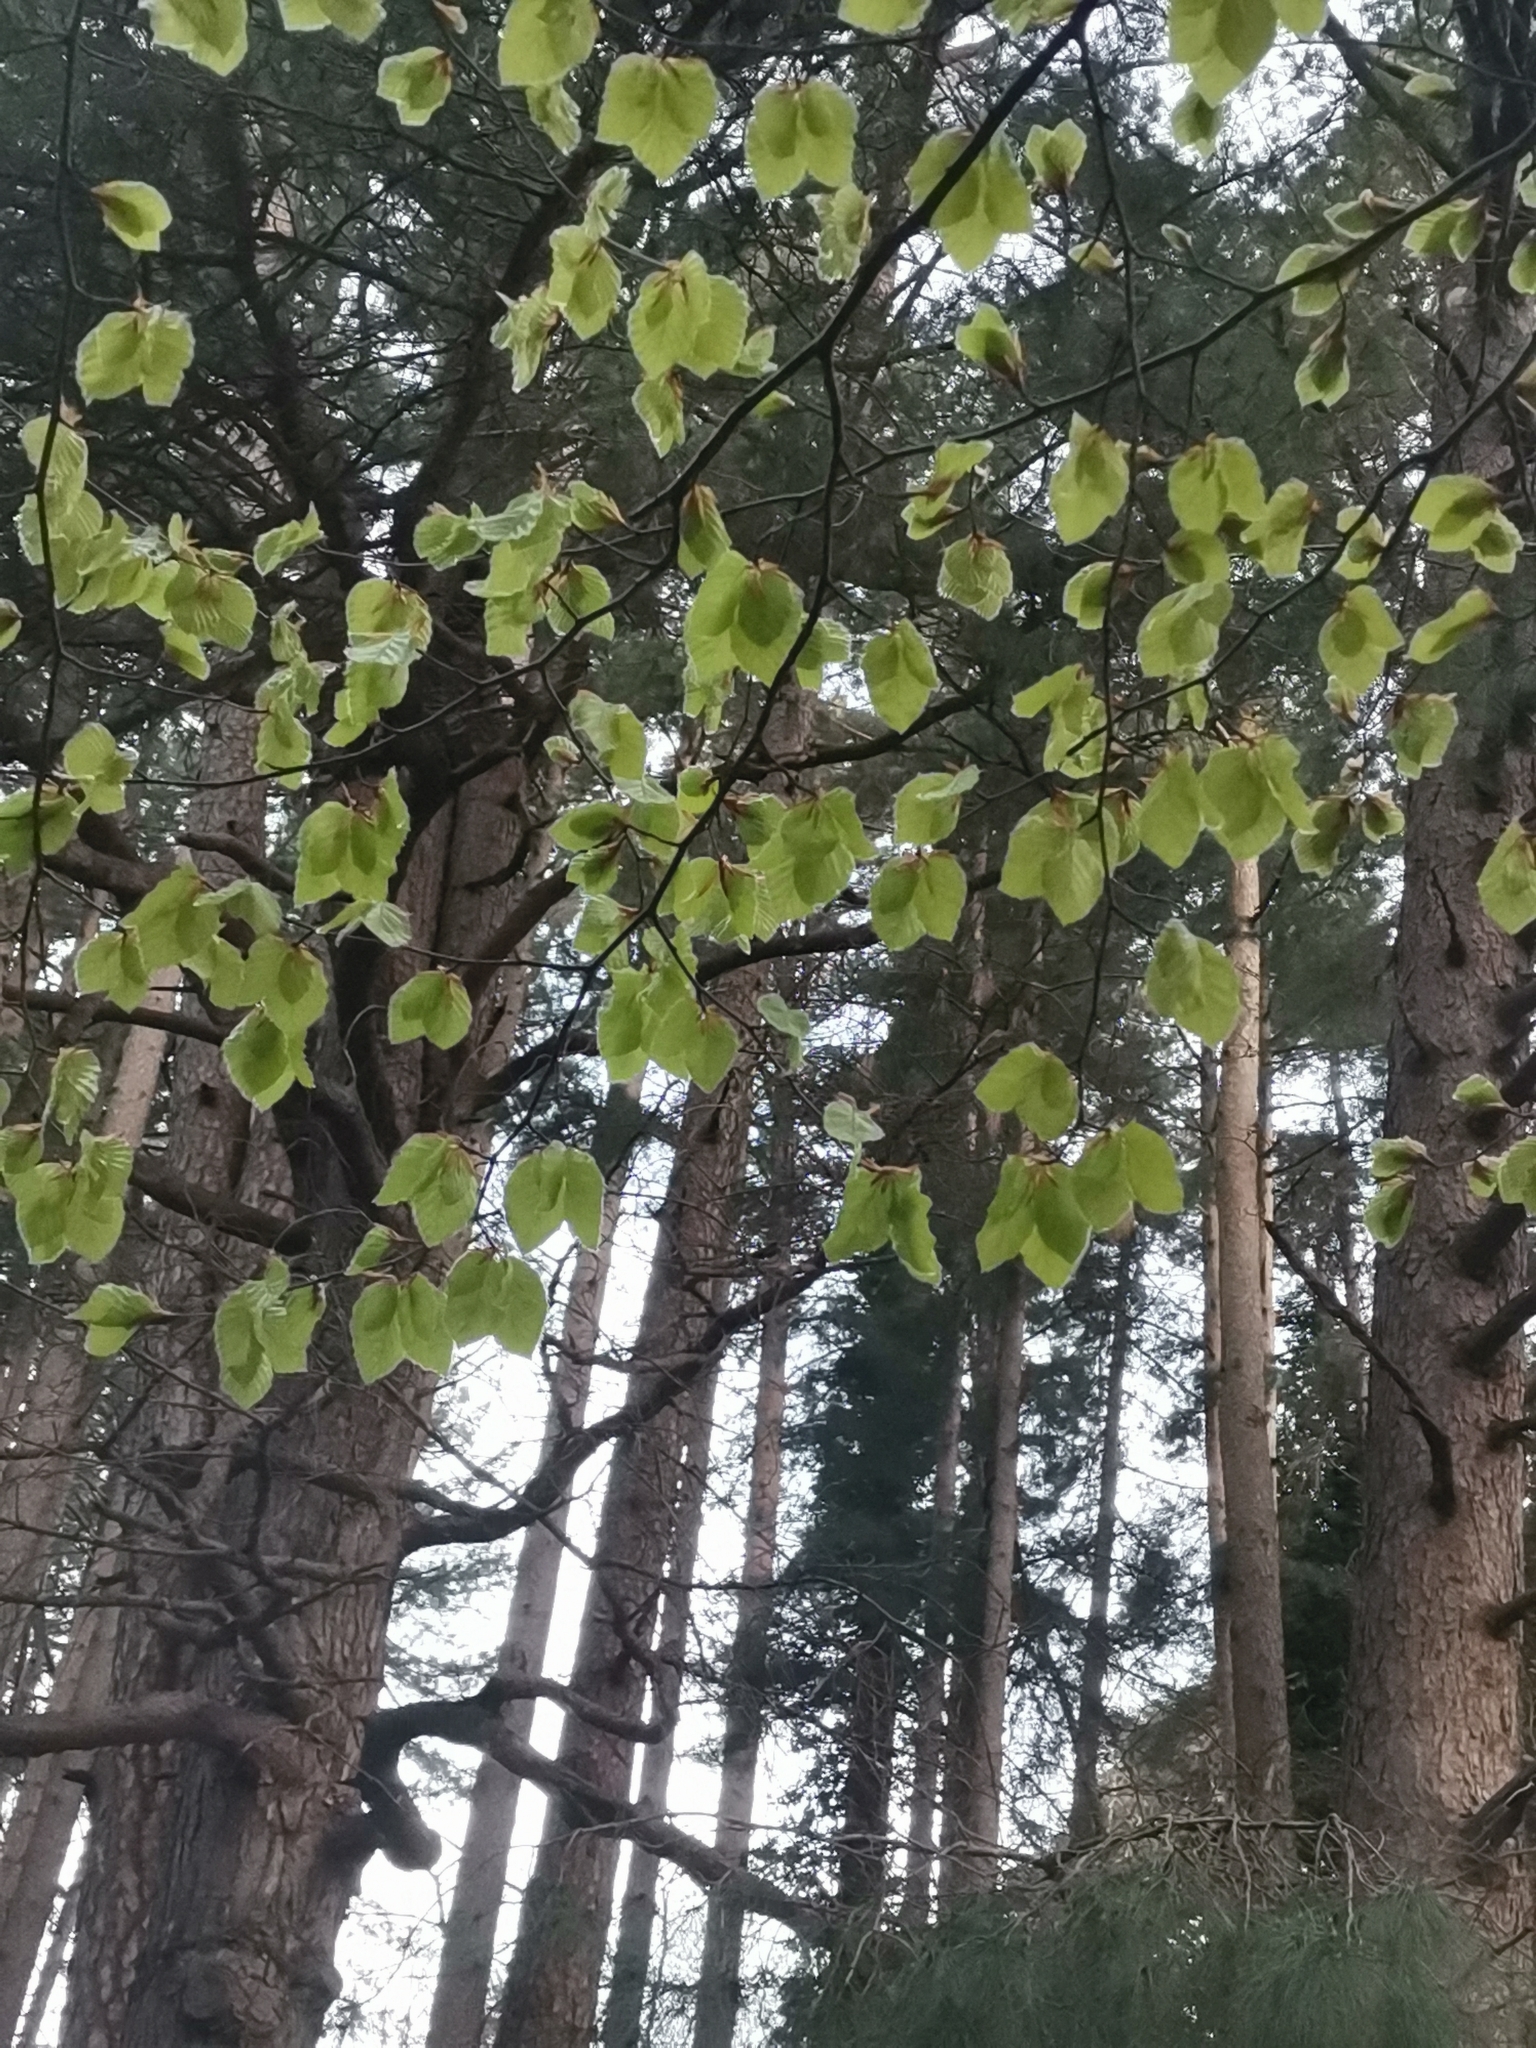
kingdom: Plantae
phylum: Tracheophyta
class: Magnoliopsida
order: Fagales
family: Fagaceae
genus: Fagus
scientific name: Fagus sylvatica
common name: Beech
